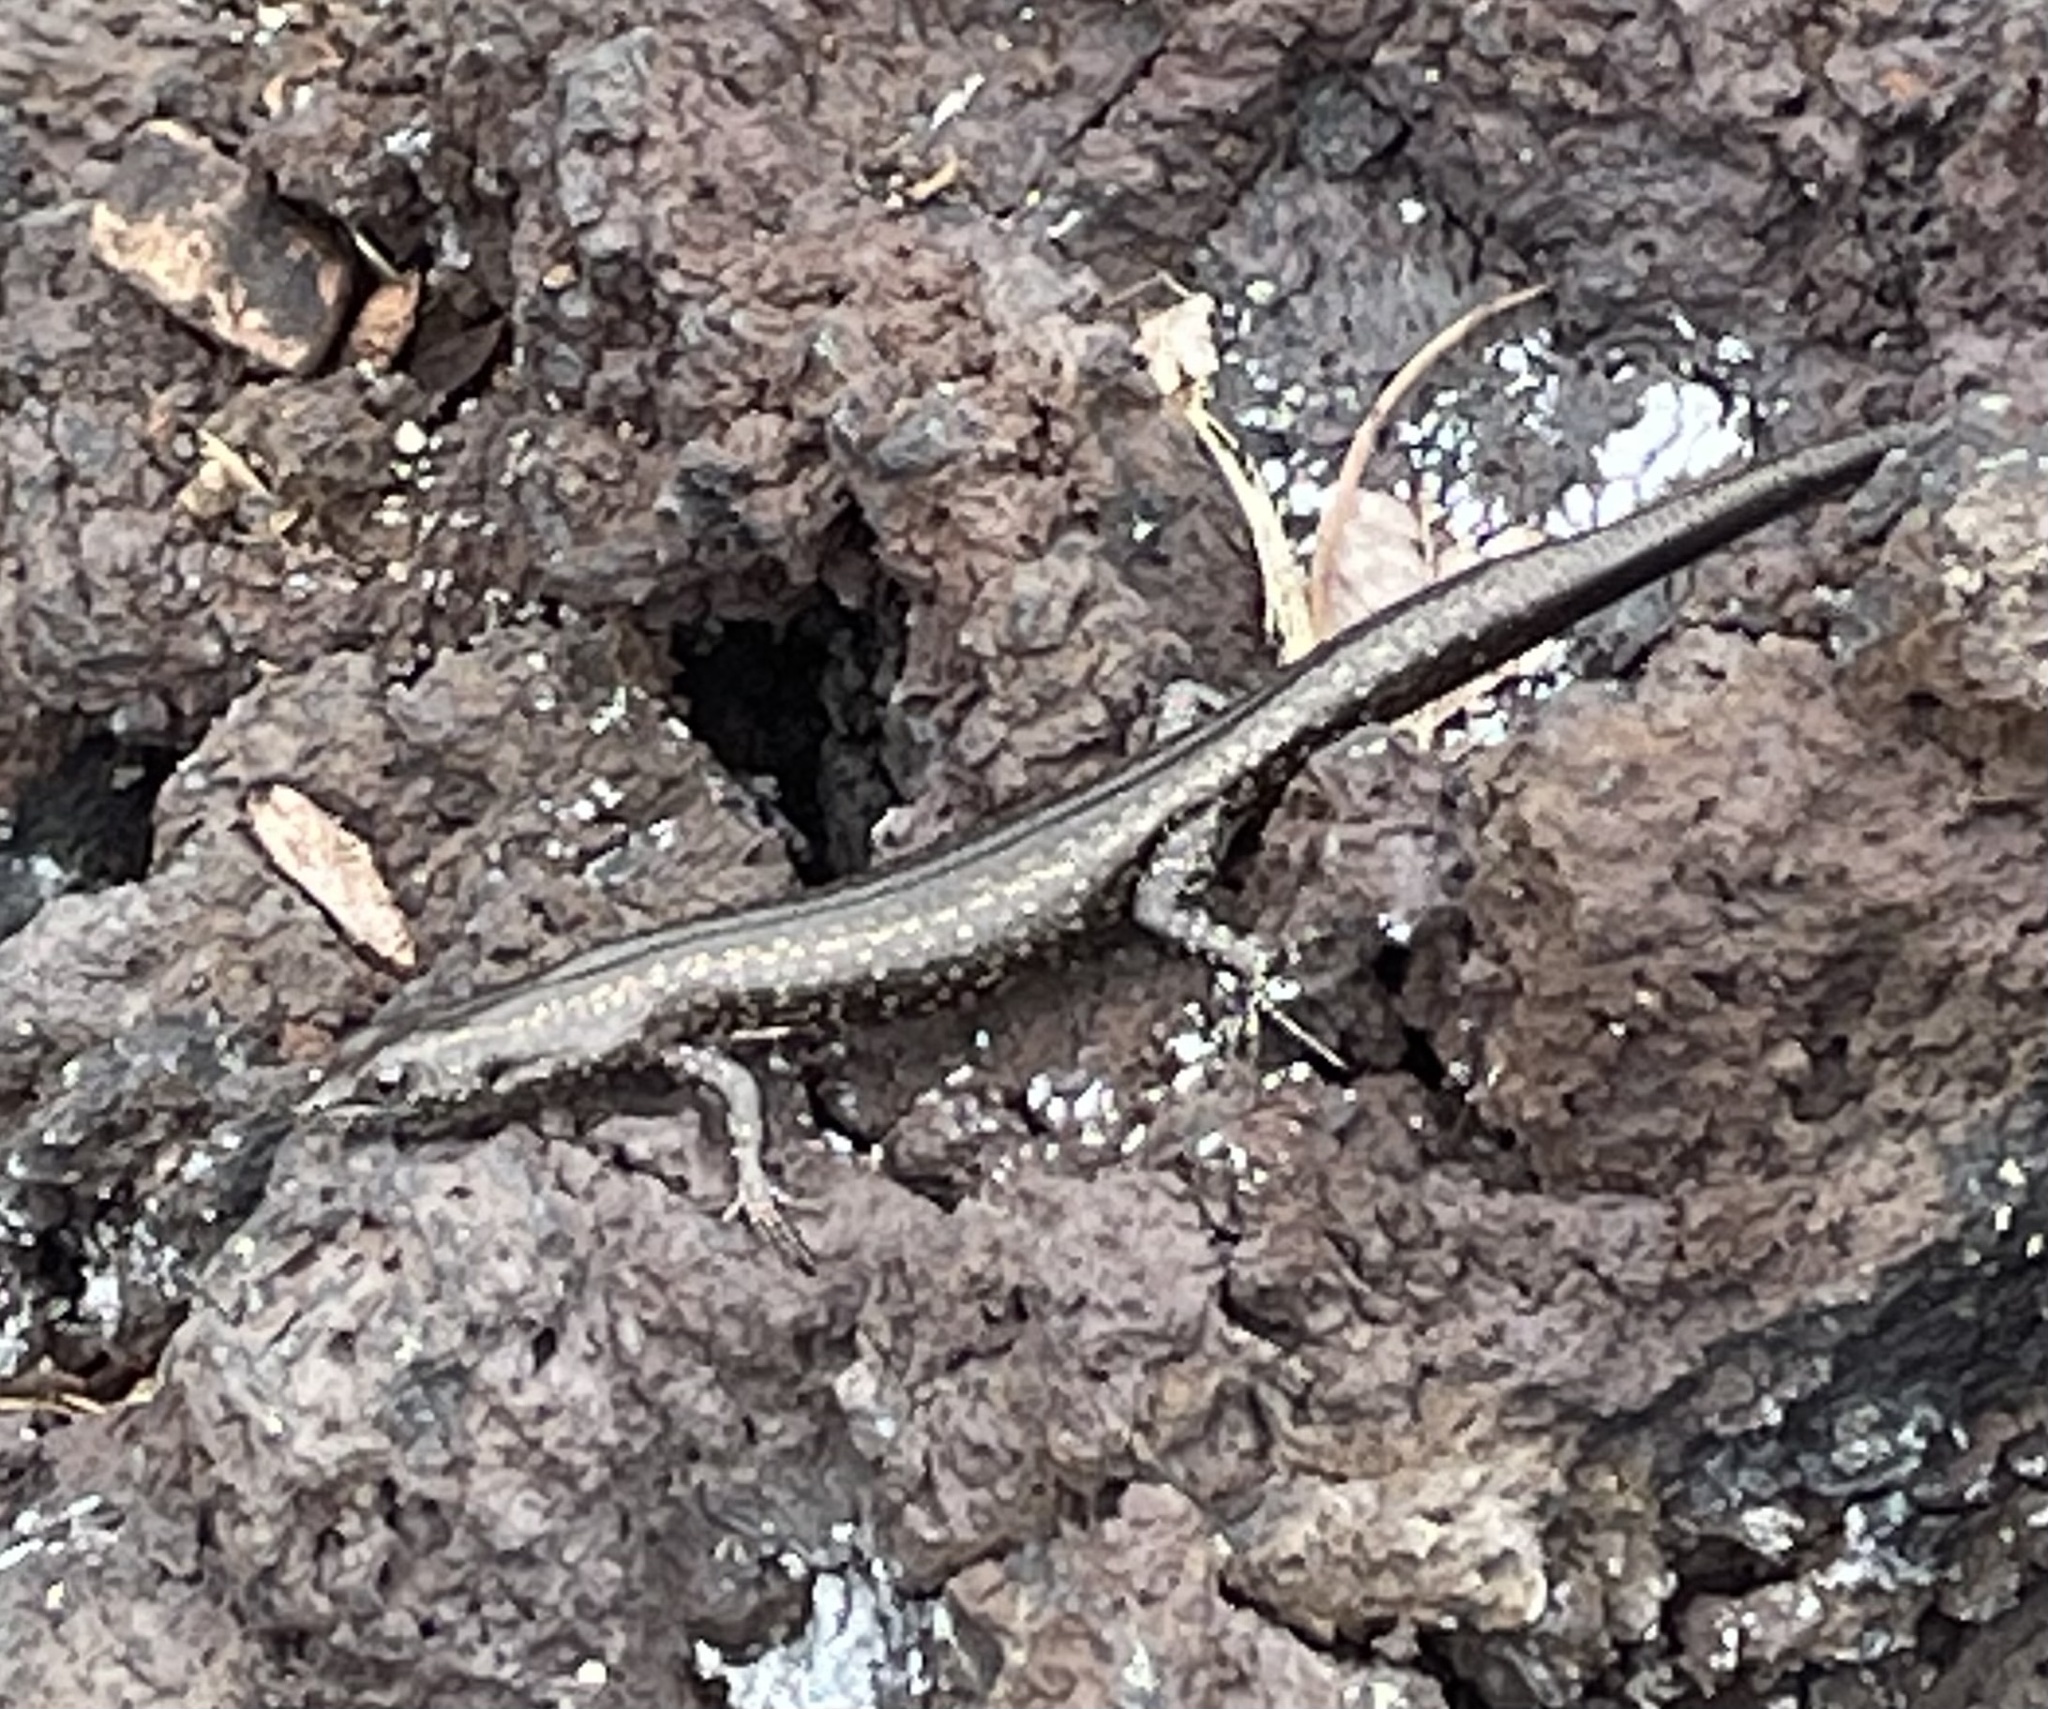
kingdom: Animalia
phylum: Chordata
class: Squamata
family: Scincidae
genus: Cryptoblepharus
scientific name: Cryptoblepharus poecilopleurus
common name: Mottled snake-eyed skink
